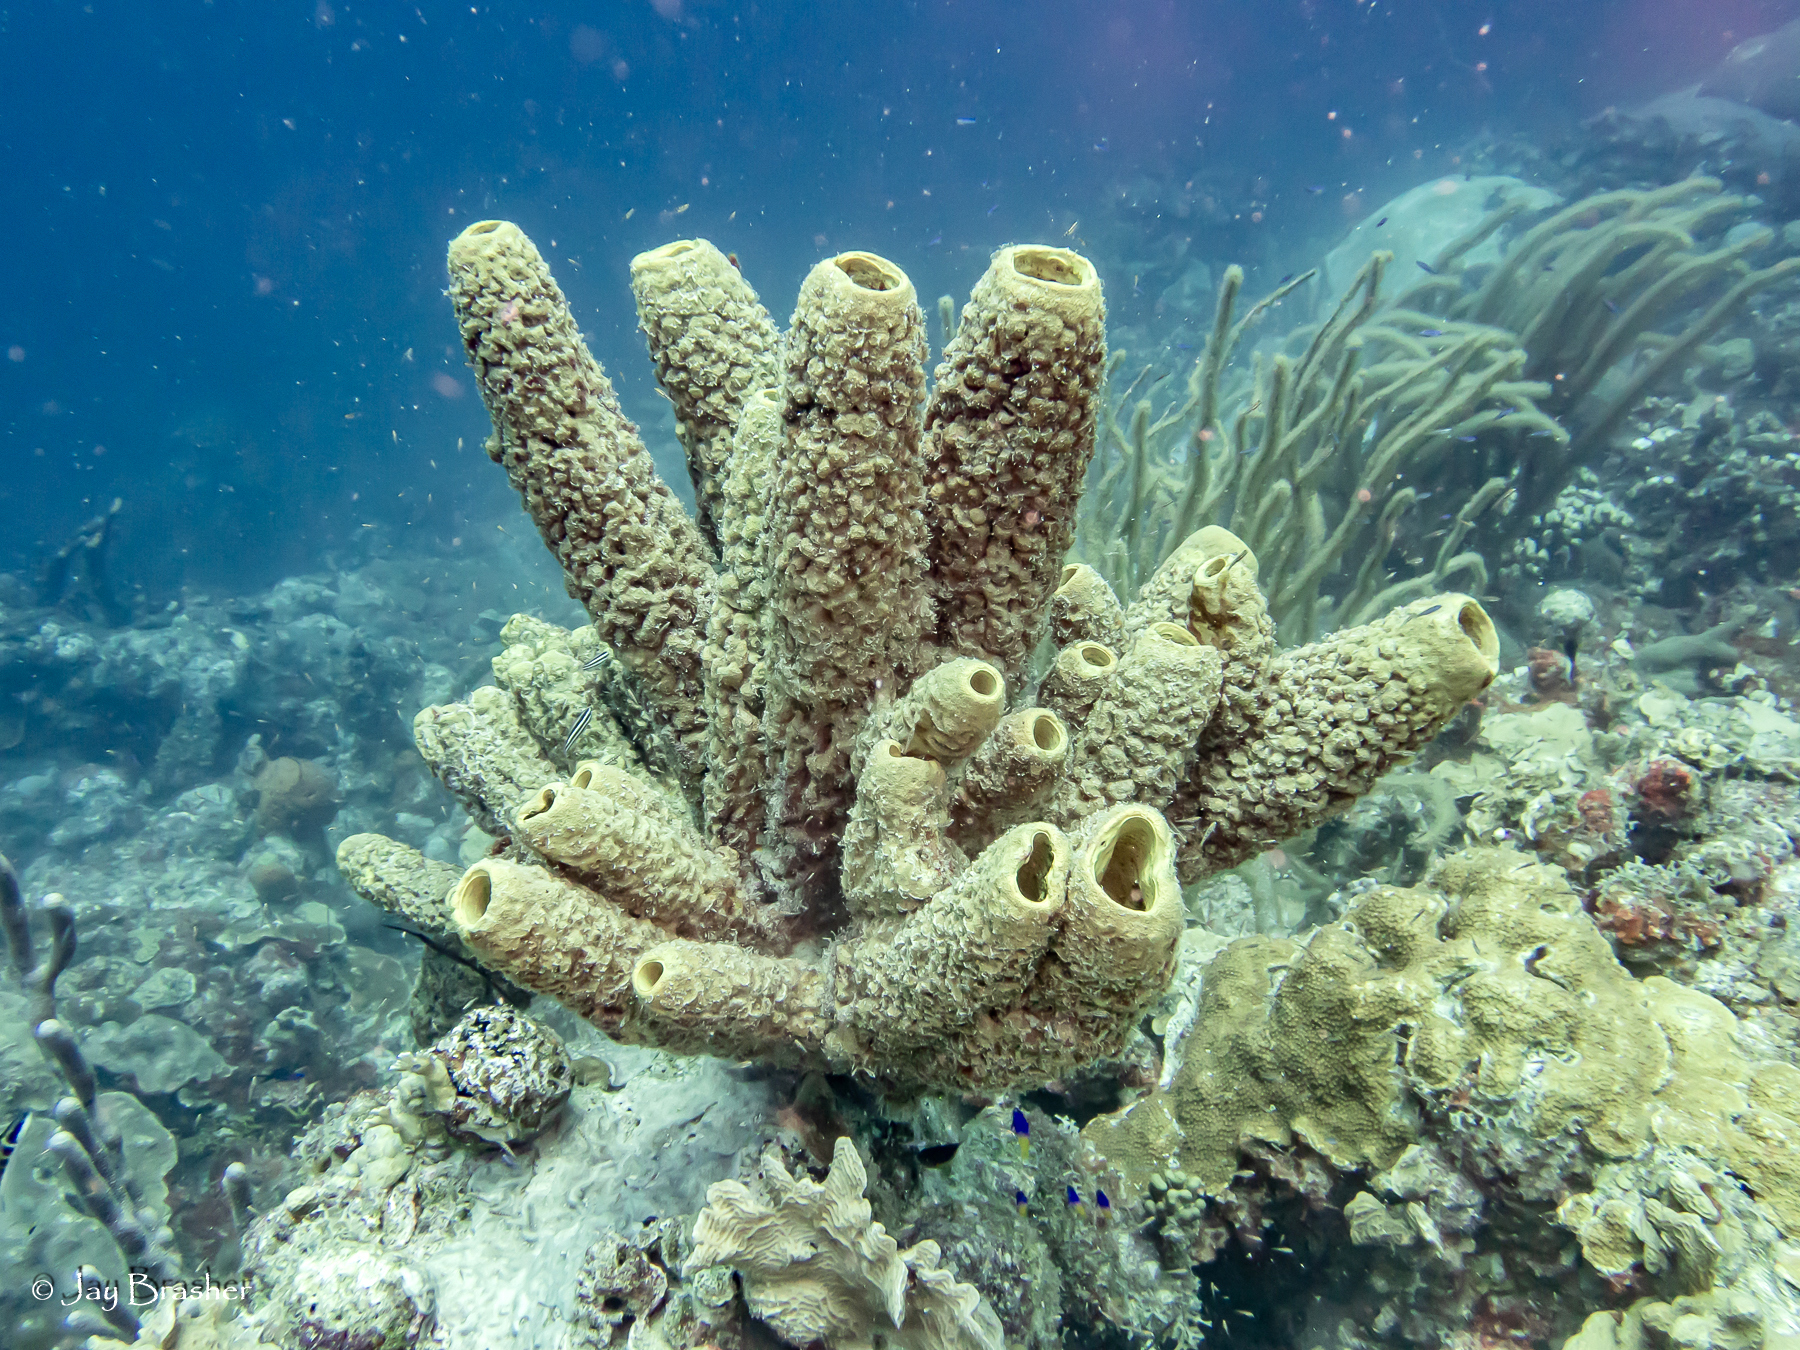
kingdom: Animalia
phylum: Porifera
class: Demospongiae
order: Verongiida
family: Aplysinidae
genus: Aplysina
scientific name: Aplysina archeri
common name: Stove-pipe sponge
